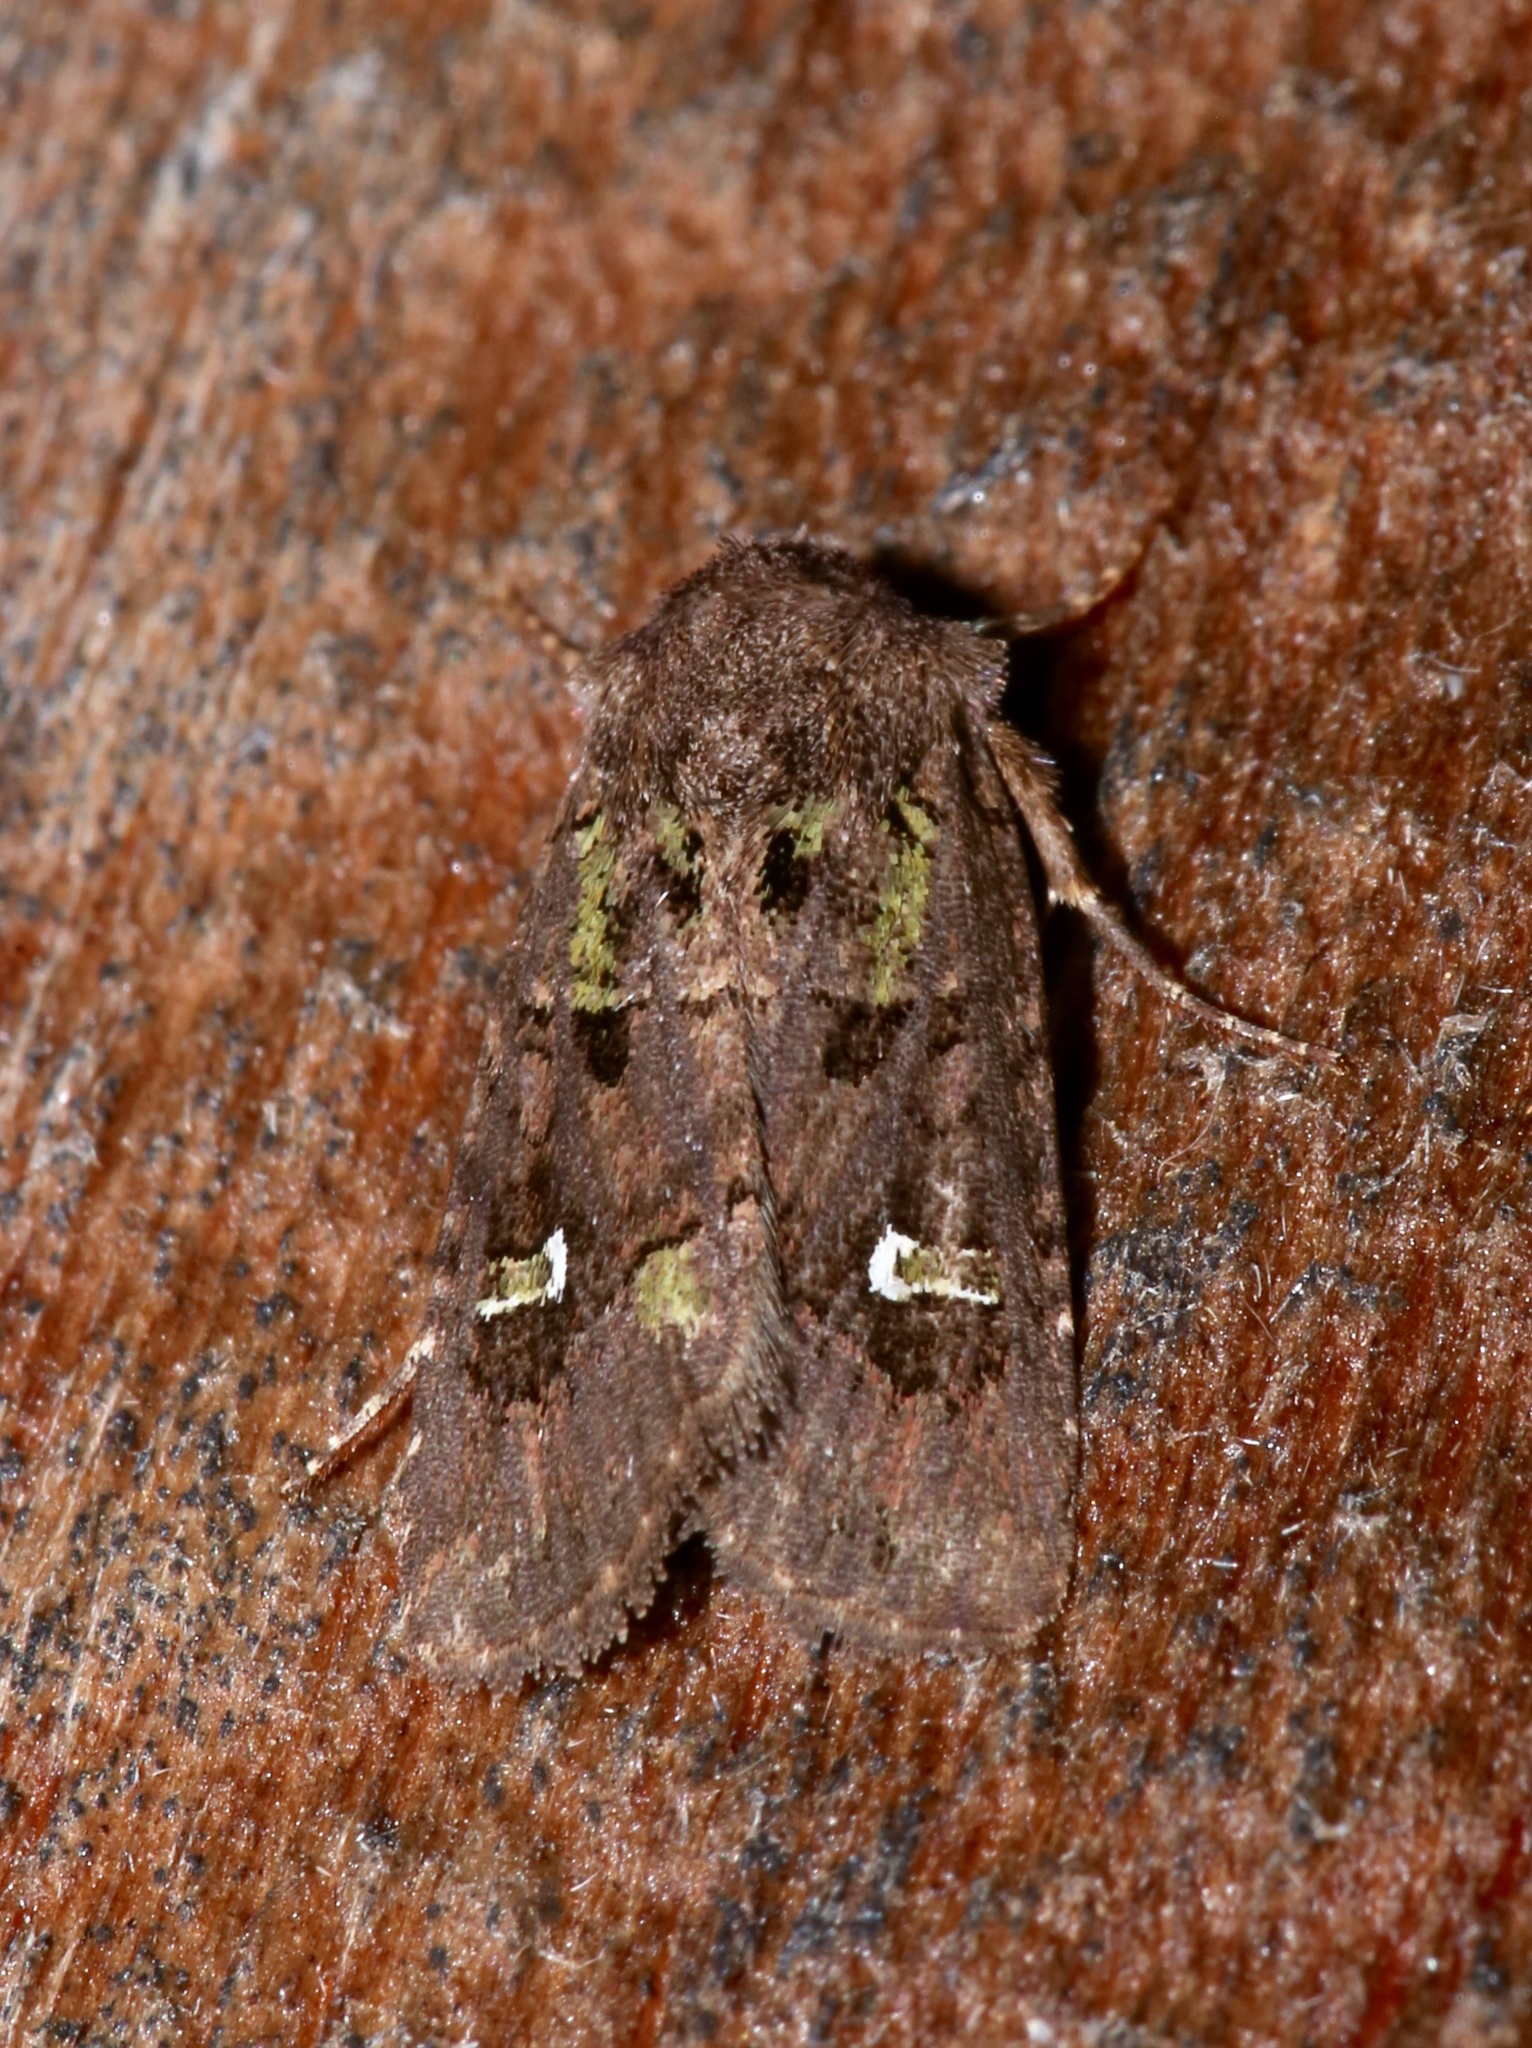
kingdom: Animalia
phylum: Arthropoda
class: Insecta
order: Lepidoptera
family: Noctuidae
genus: Lacinipolia
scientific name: Lacinipolia renigera
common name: Kidney-spotted minor
